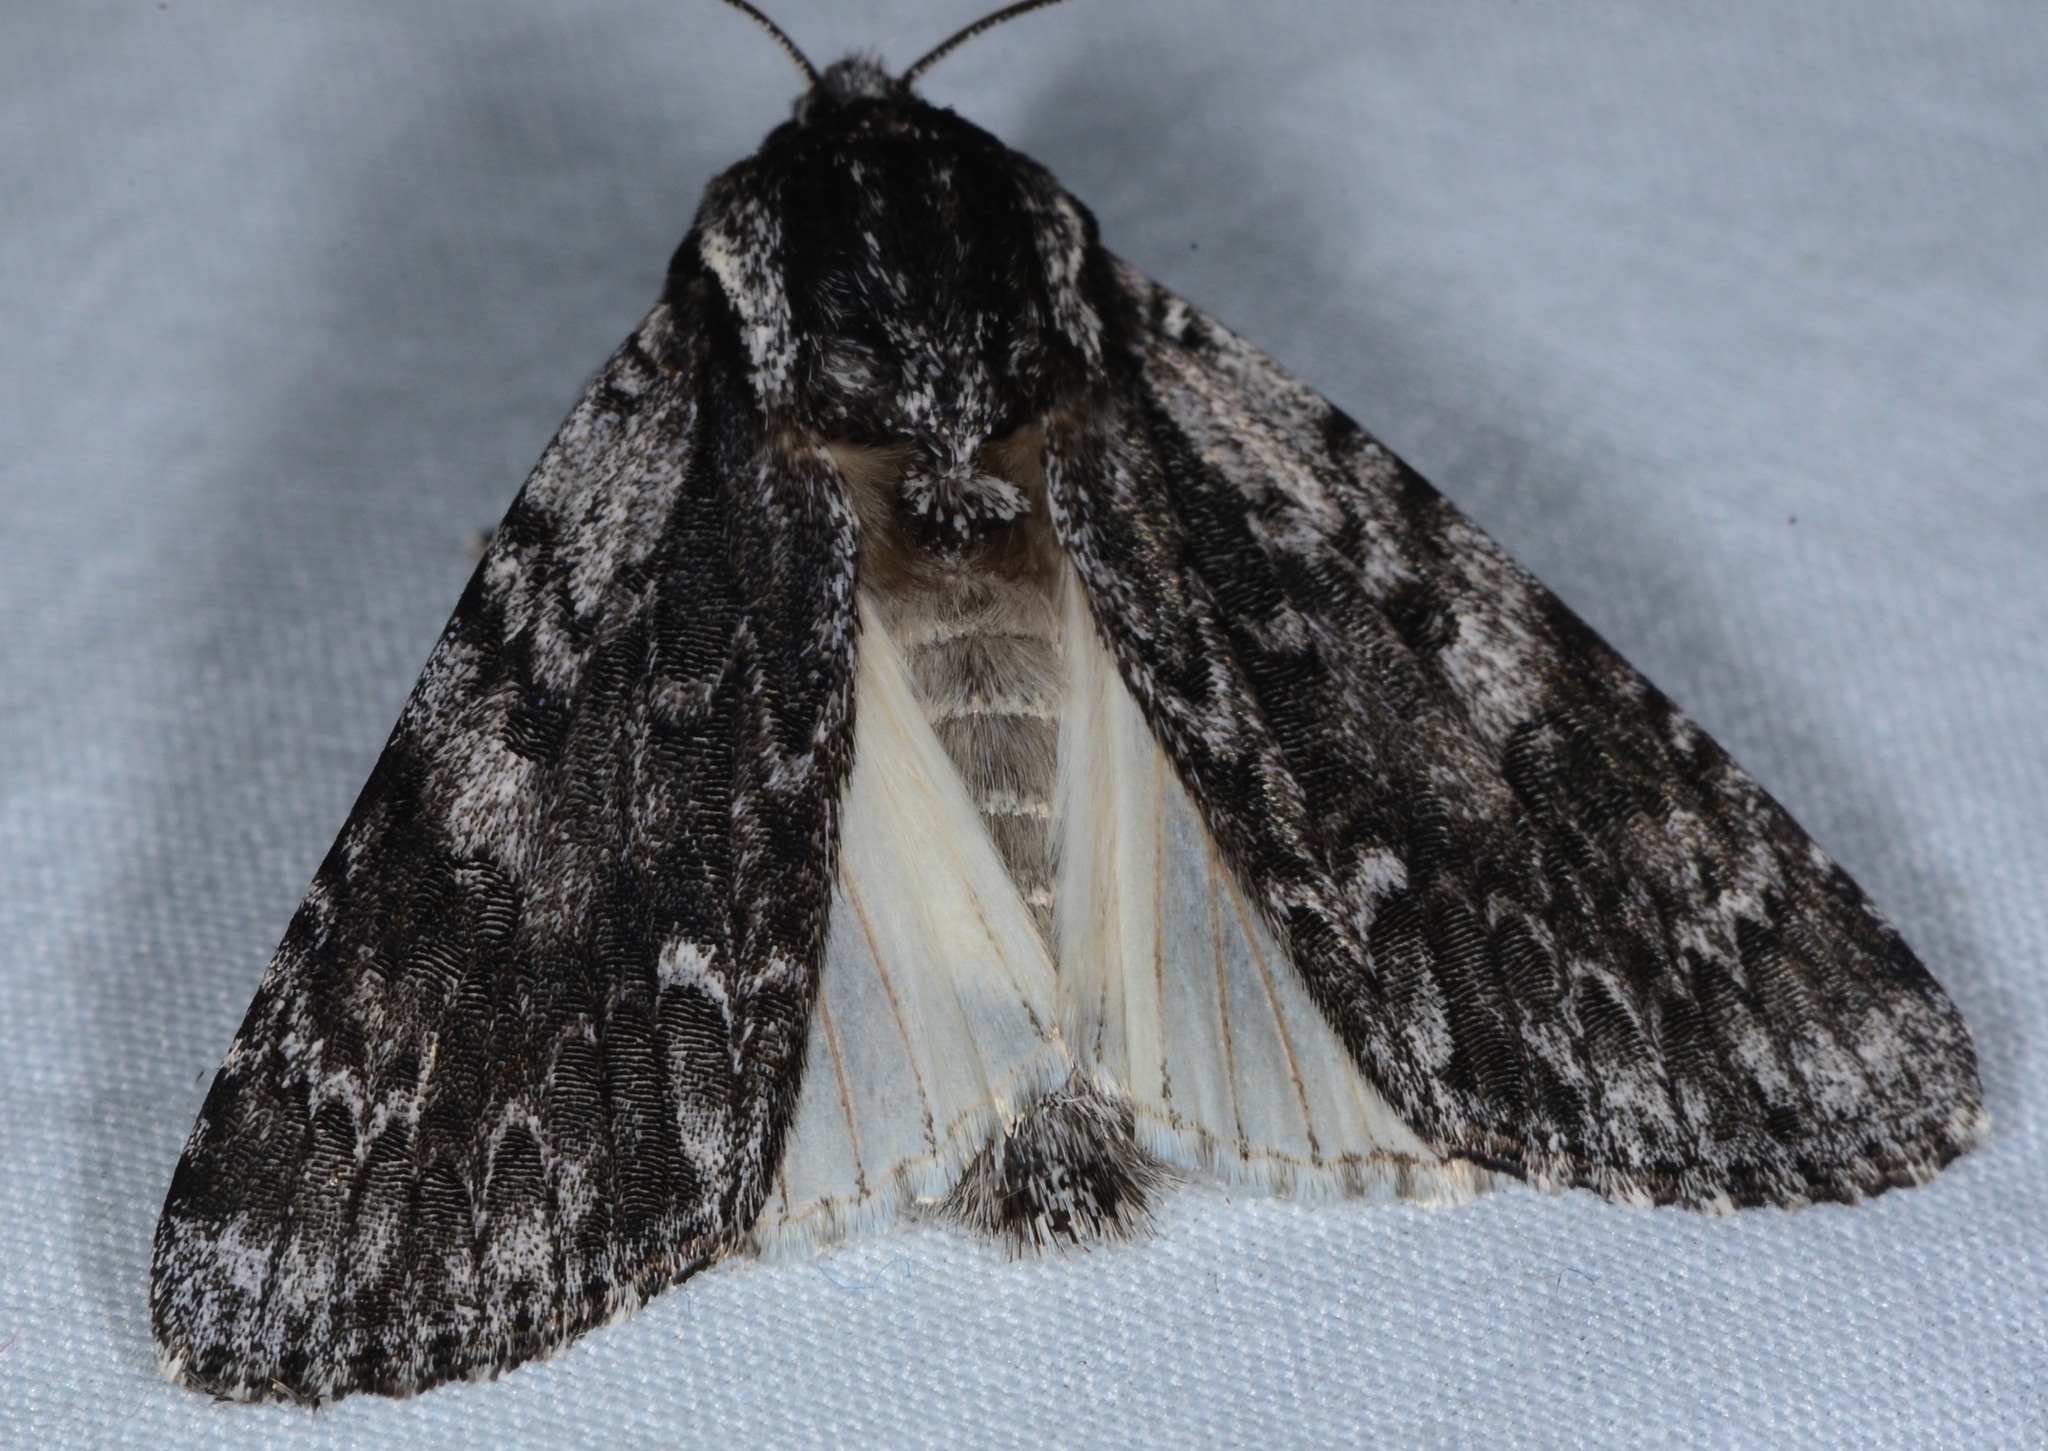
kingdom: Animalia
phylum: Arthropoda
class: Insecta
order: Lepidoptera
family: Noctuidae
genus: Acronicta
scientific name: Acronicta perdita
